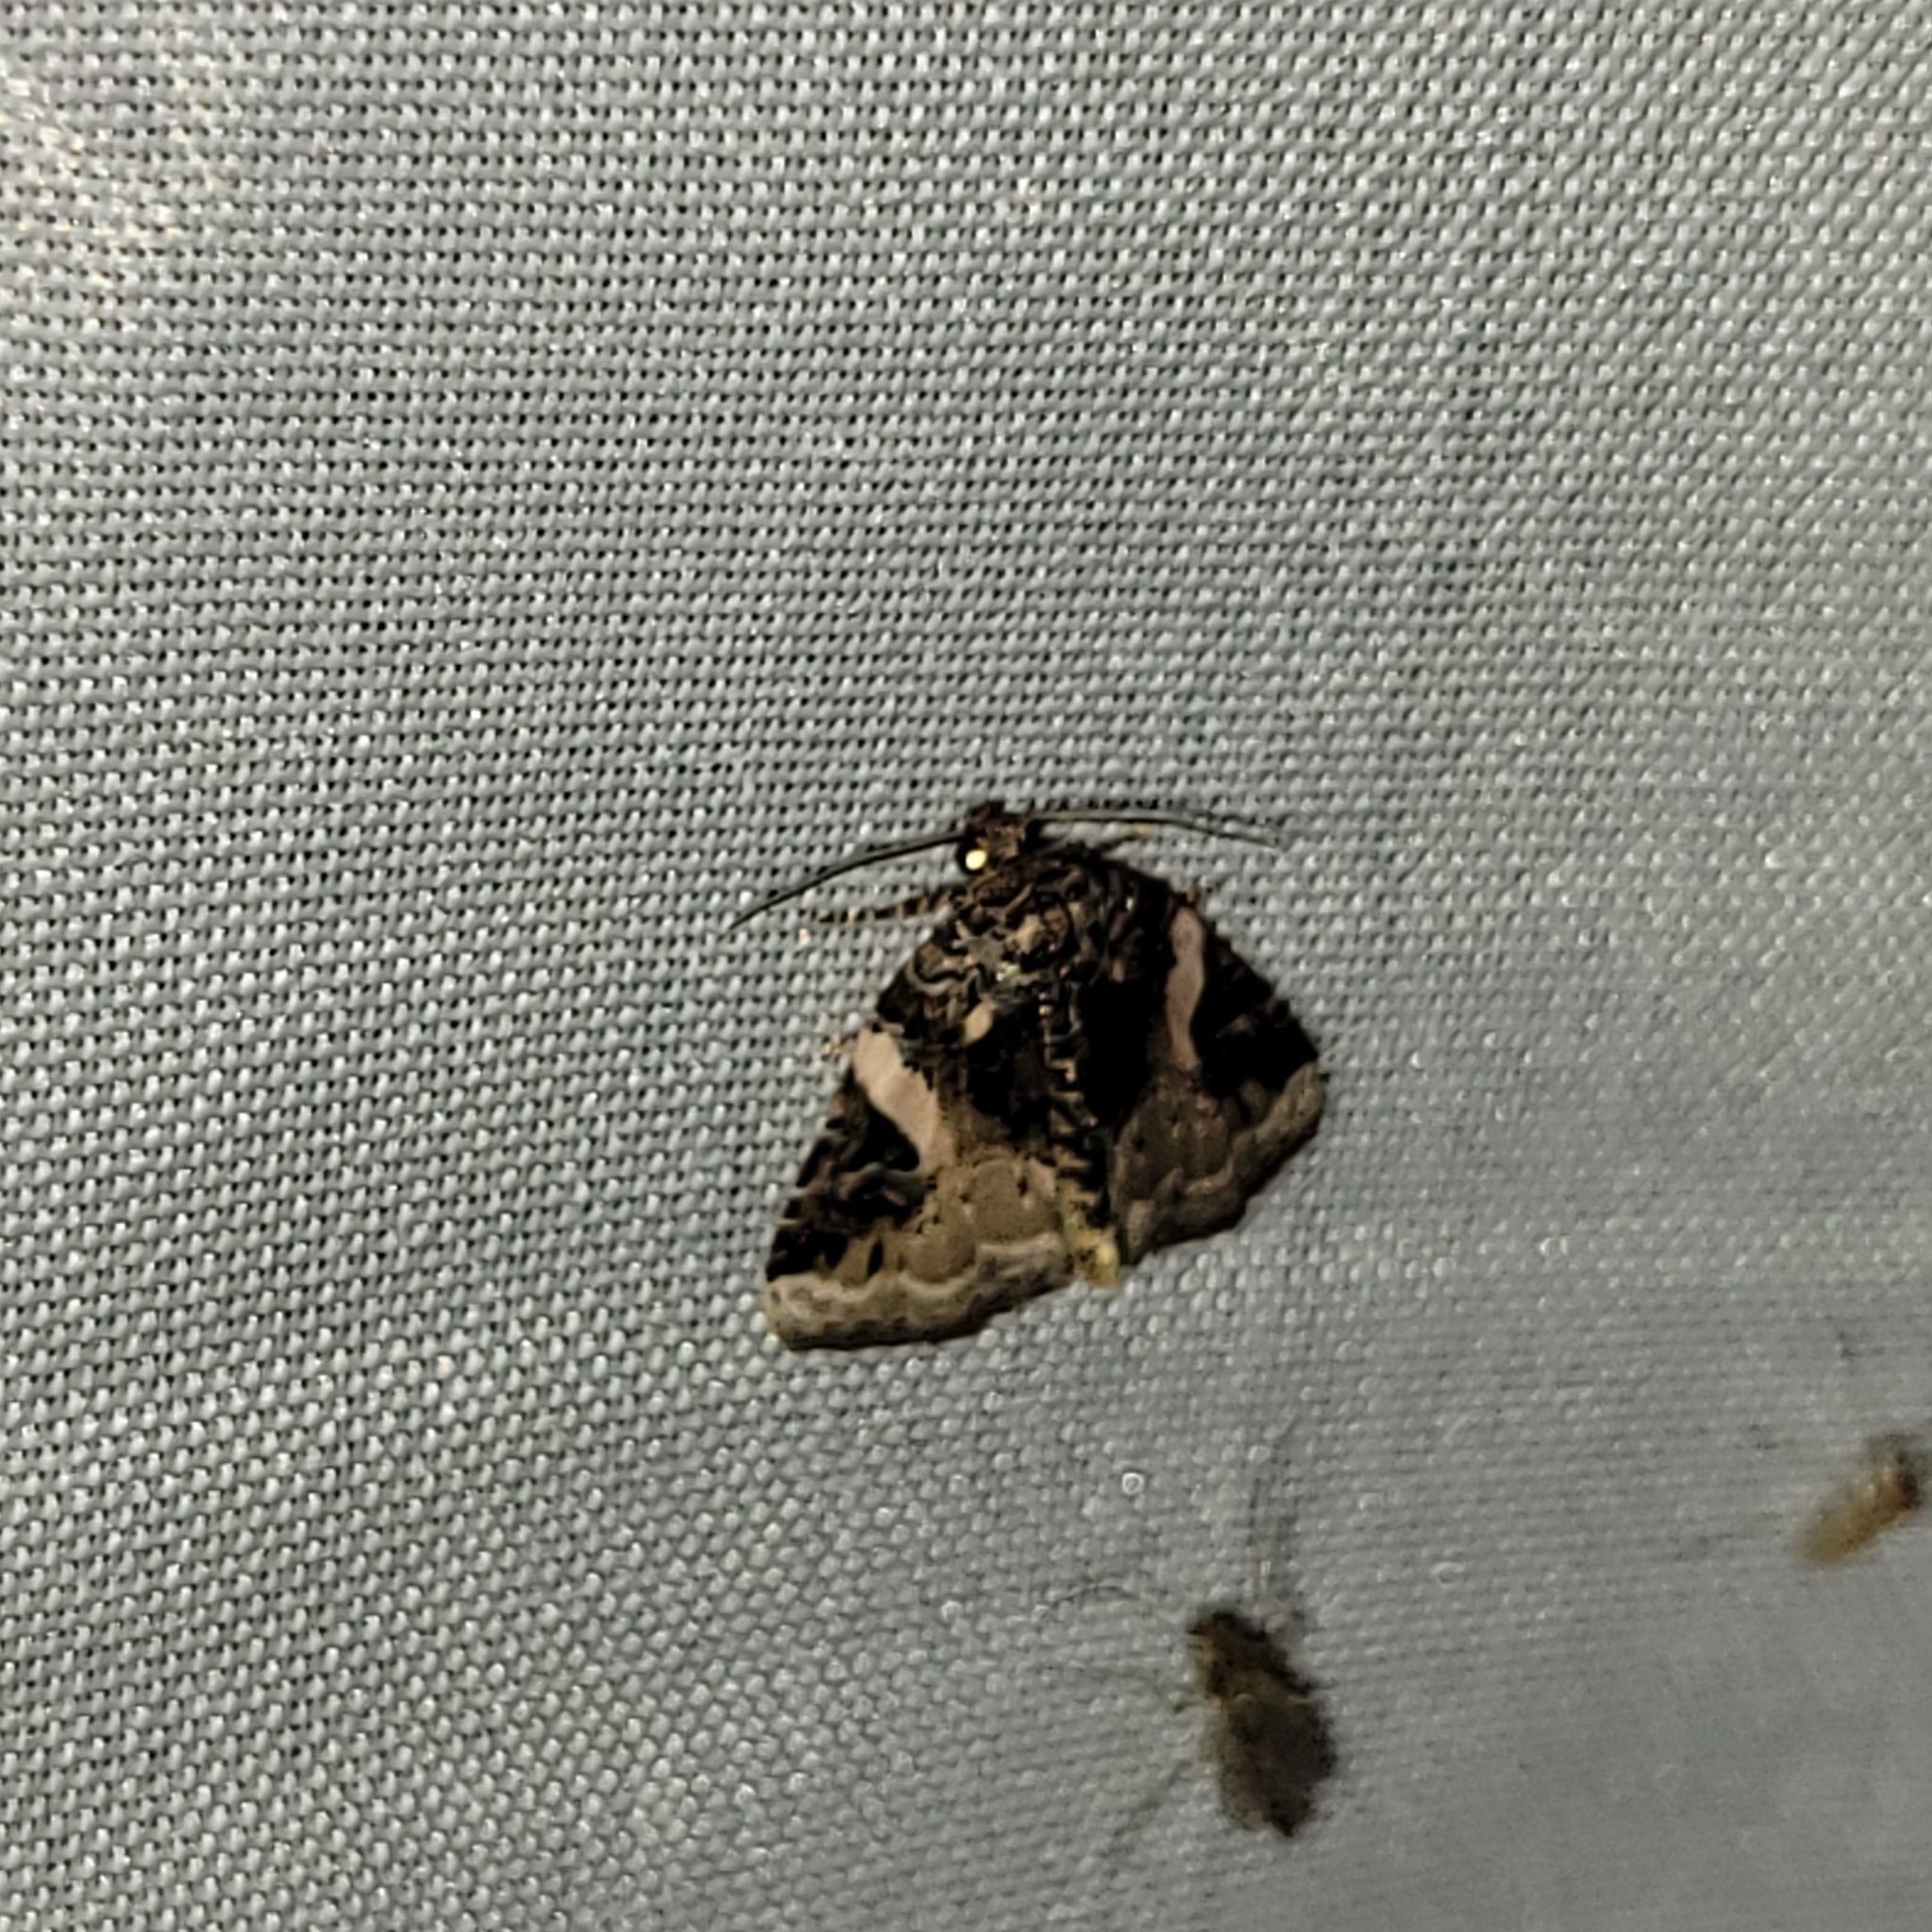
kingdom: Animalia
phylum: Arthropoda
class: Insecta
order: Lepidoptera
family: Noctuidae
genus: Pseudeustrotia
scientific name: Pseudeustrotia carneola
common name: Pink-barred lithacodia moth
